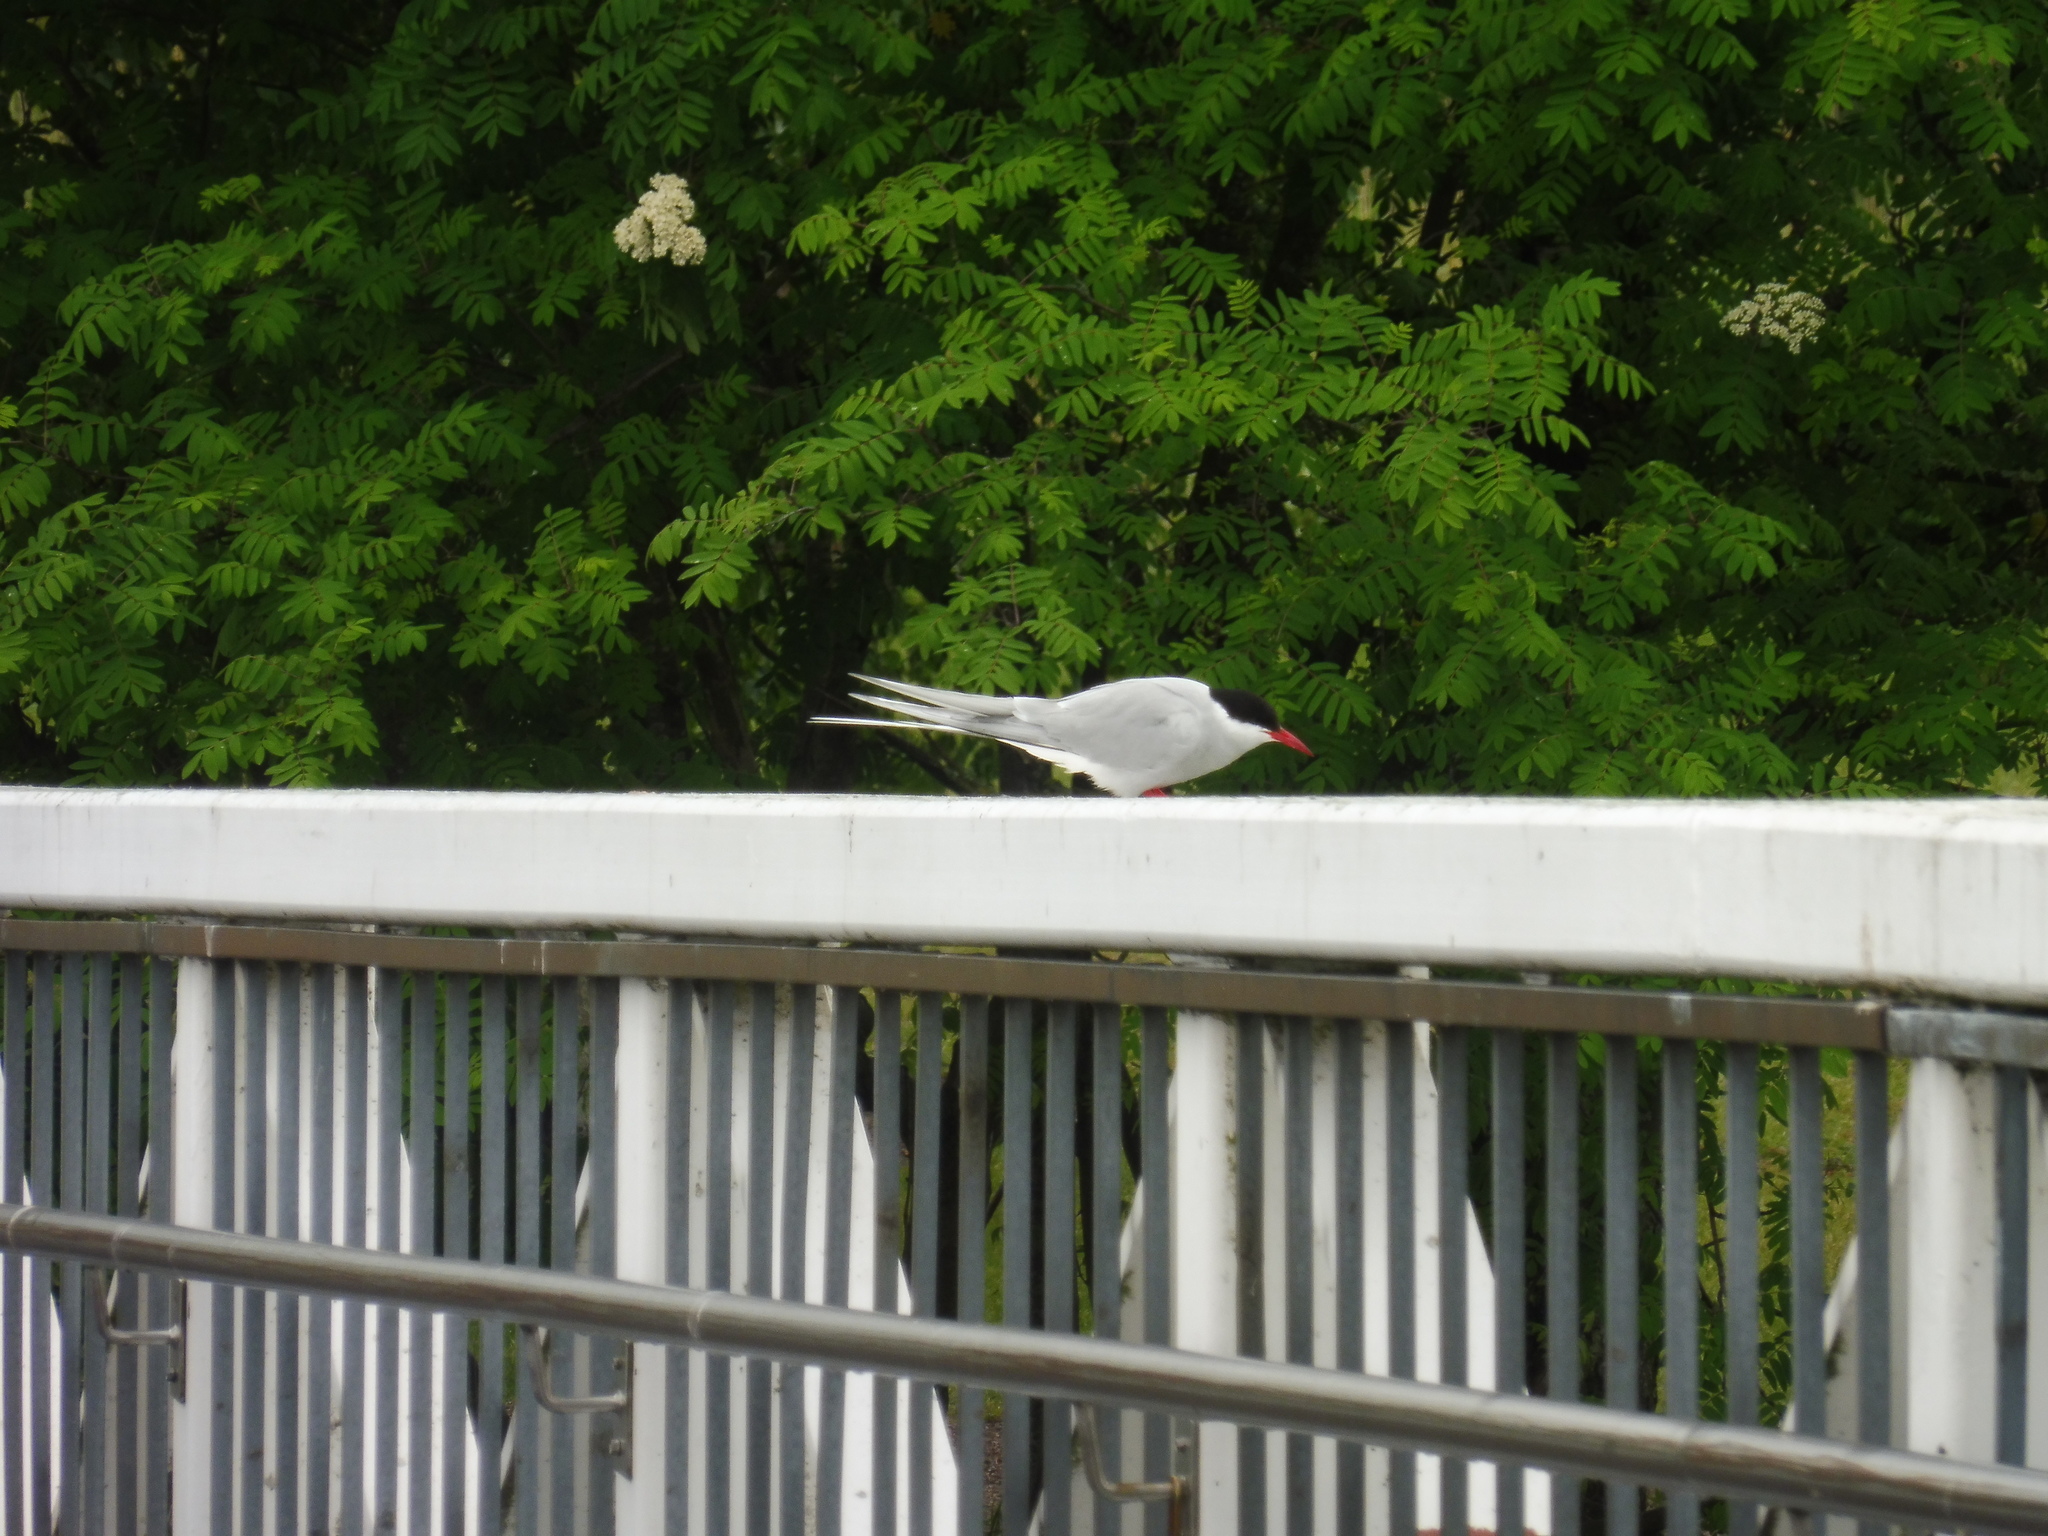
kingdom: Animalia
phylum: Chordata
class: Aves
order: Charadriiformes
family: Laridae
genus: Sterna
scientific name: Sterna paradisaea
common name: Arctic tern
